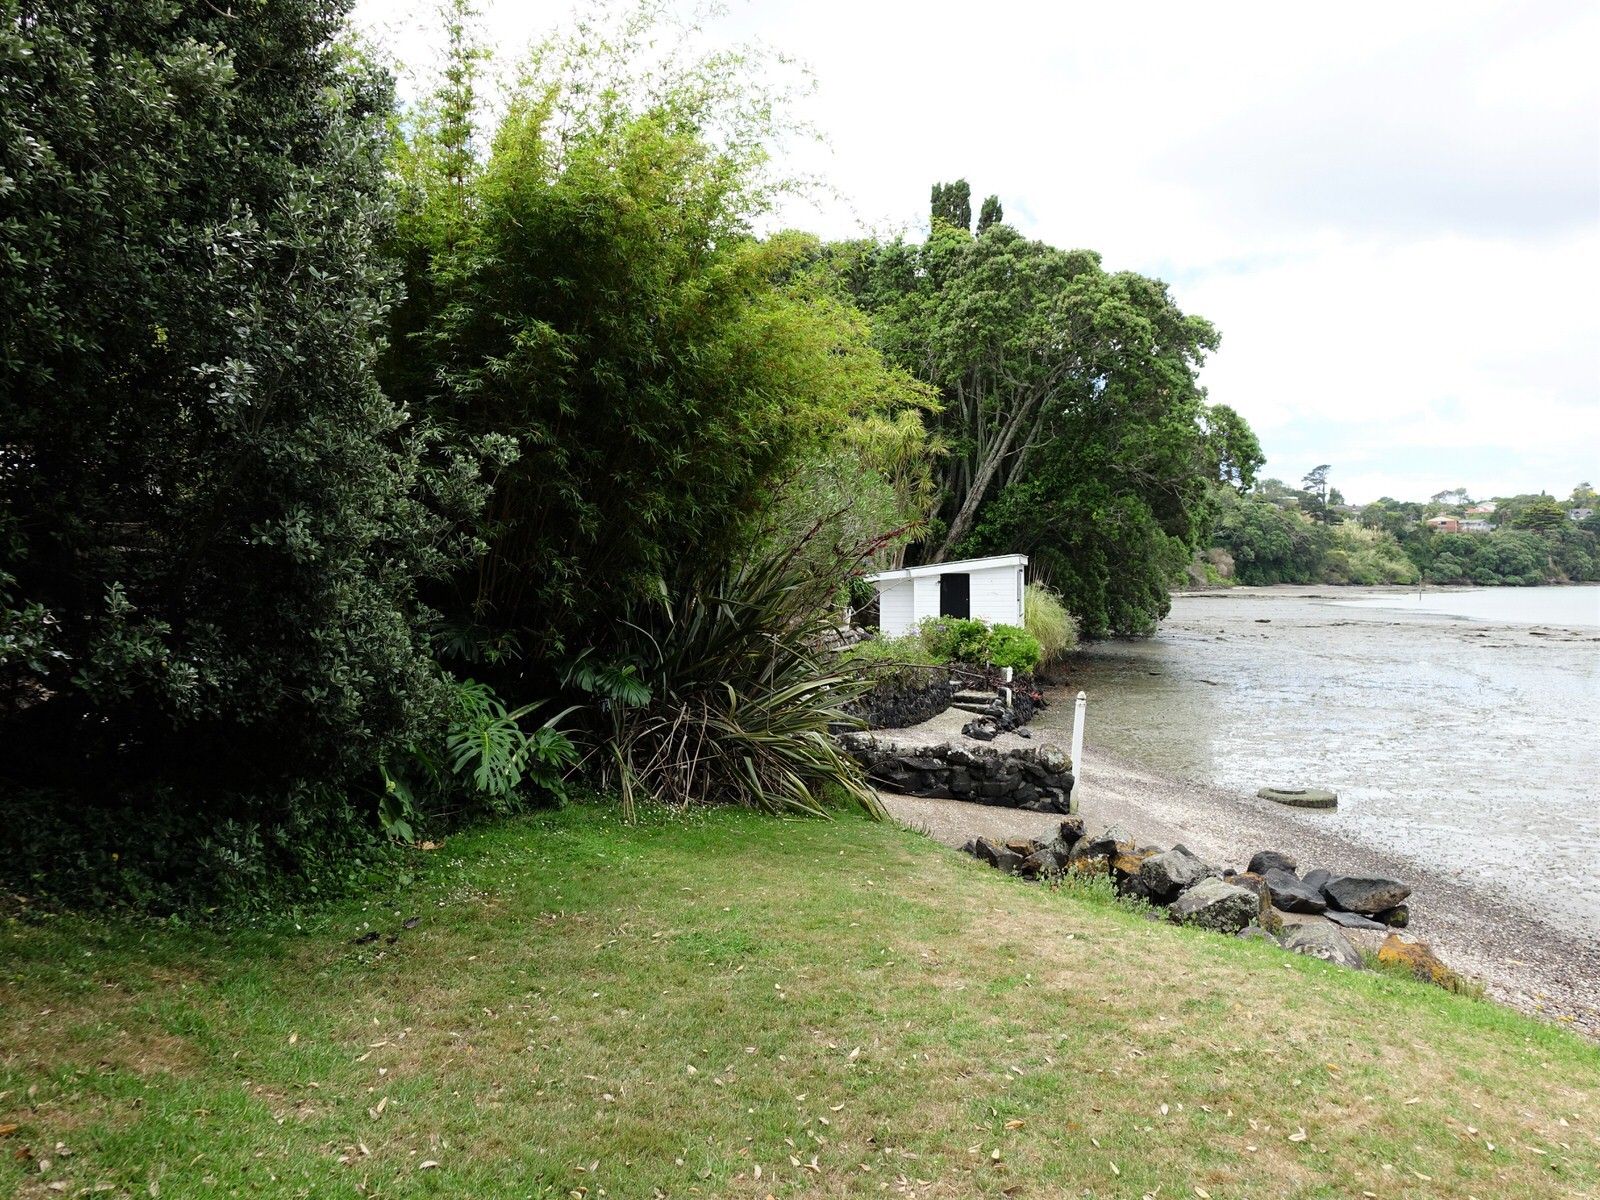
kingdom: Animalia
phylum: Chordata
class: Aves
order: Passeriformes
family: Meliphagidae
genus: Prosthemadera
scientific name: Prosthemadera novaeseelandiae
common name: Tui
